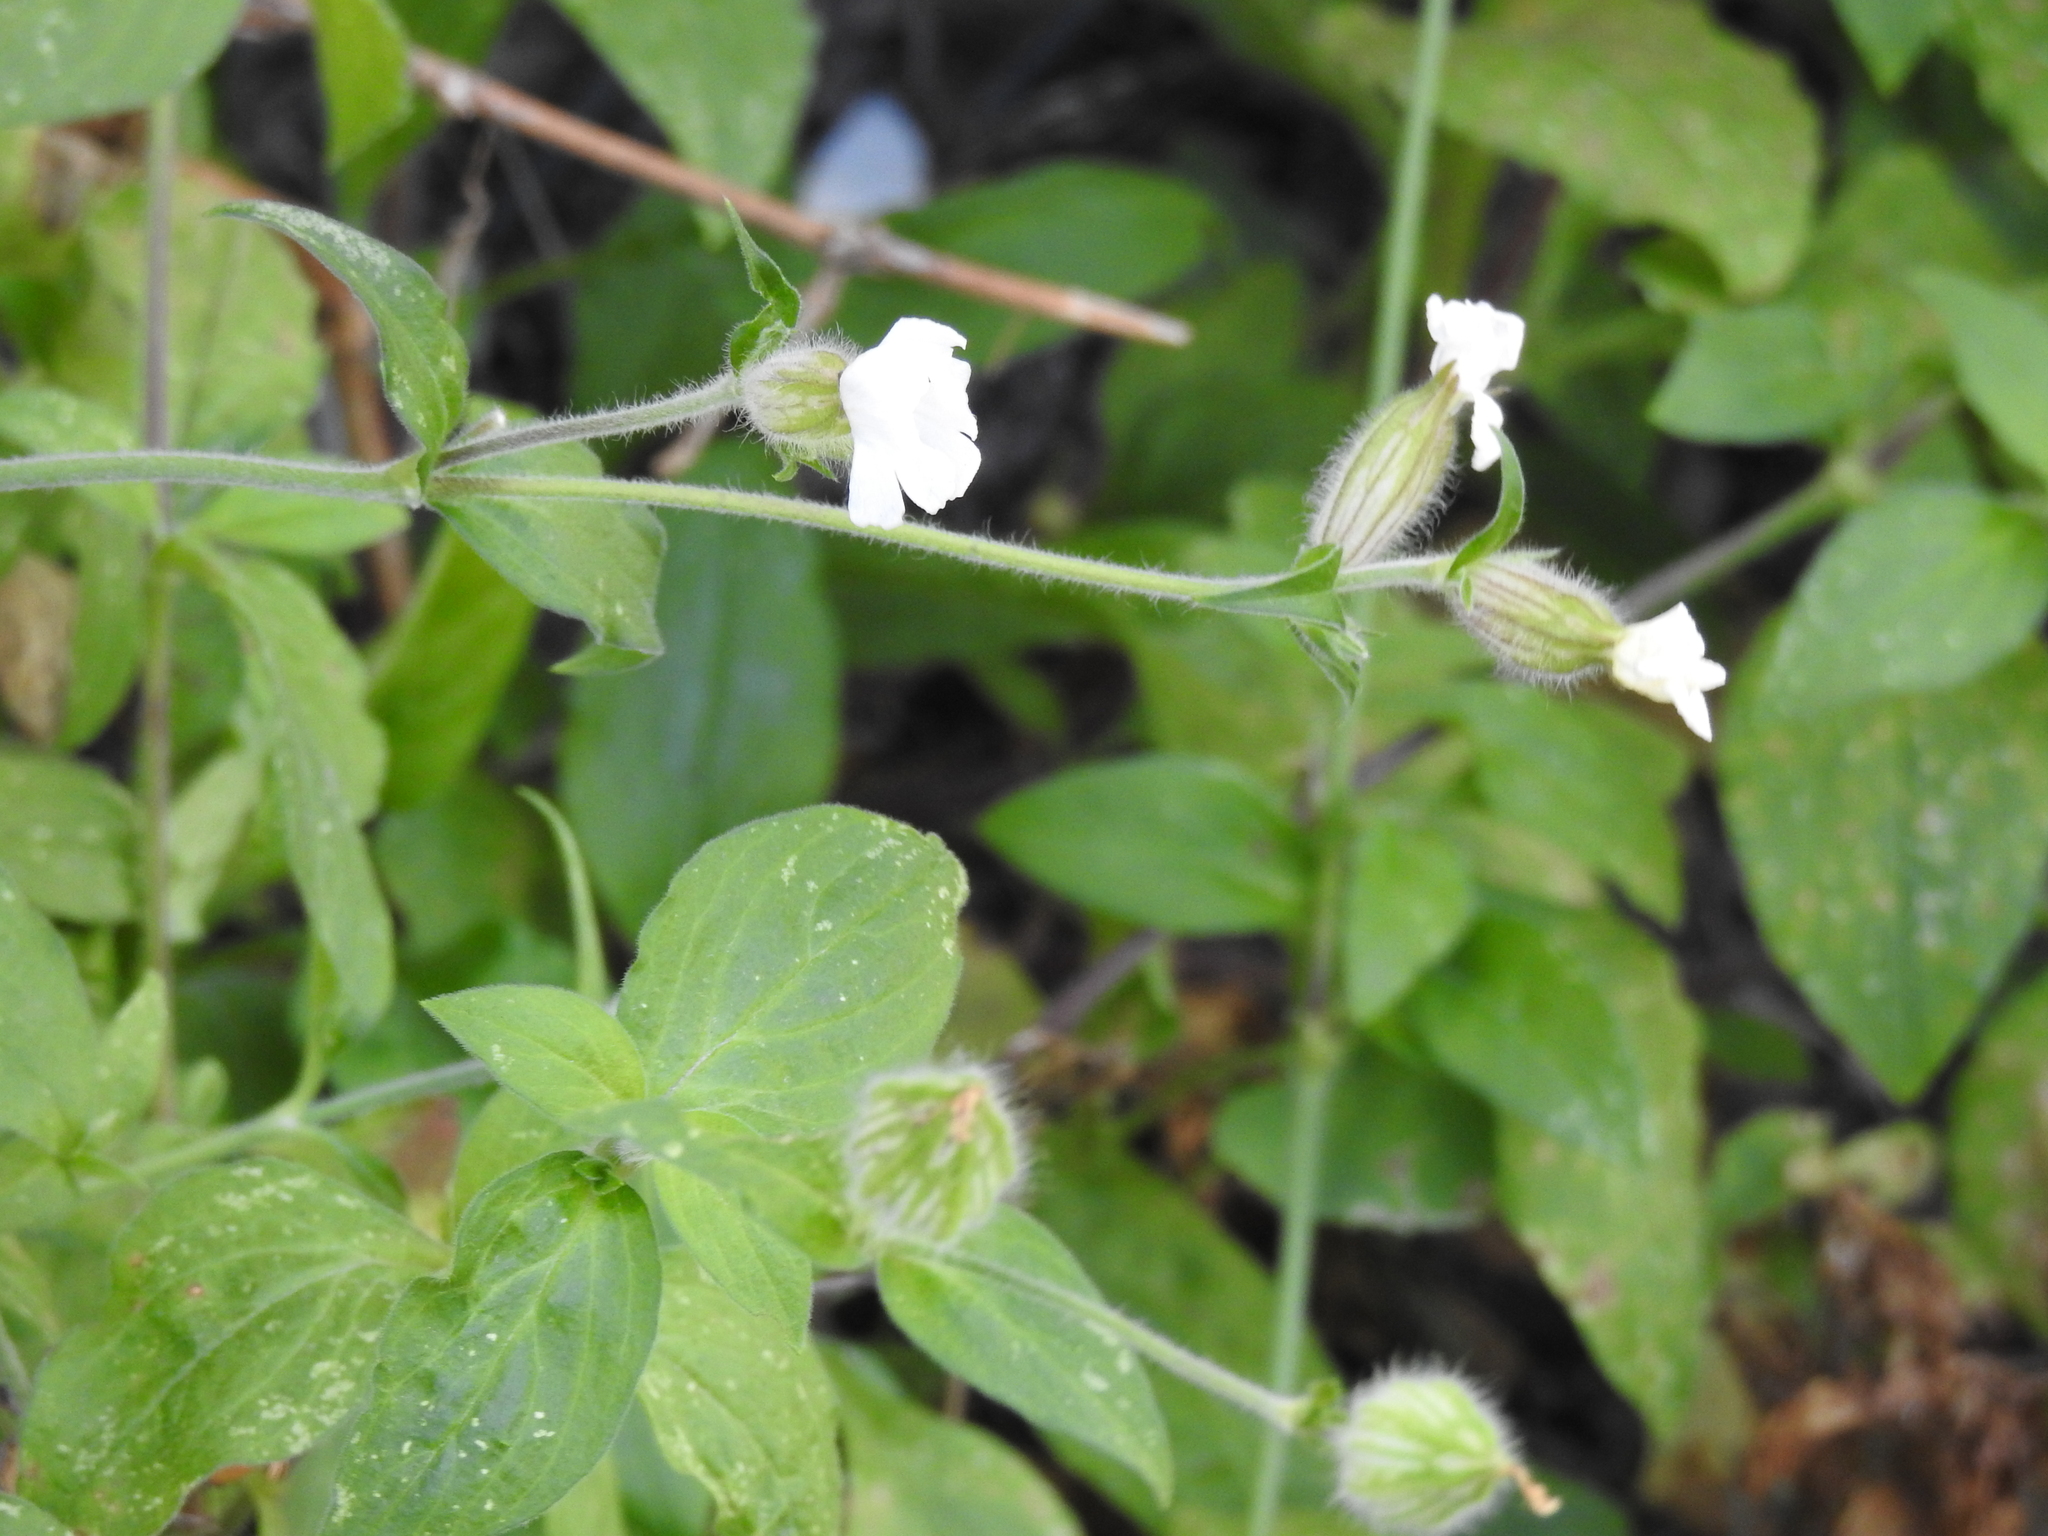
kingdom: Plantae
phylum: Tracheophyta
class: Magnoliopsida
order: Caryophyllales
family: Caryophyllaceae
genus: Silene
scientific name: Silene latifolia
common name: White campion
